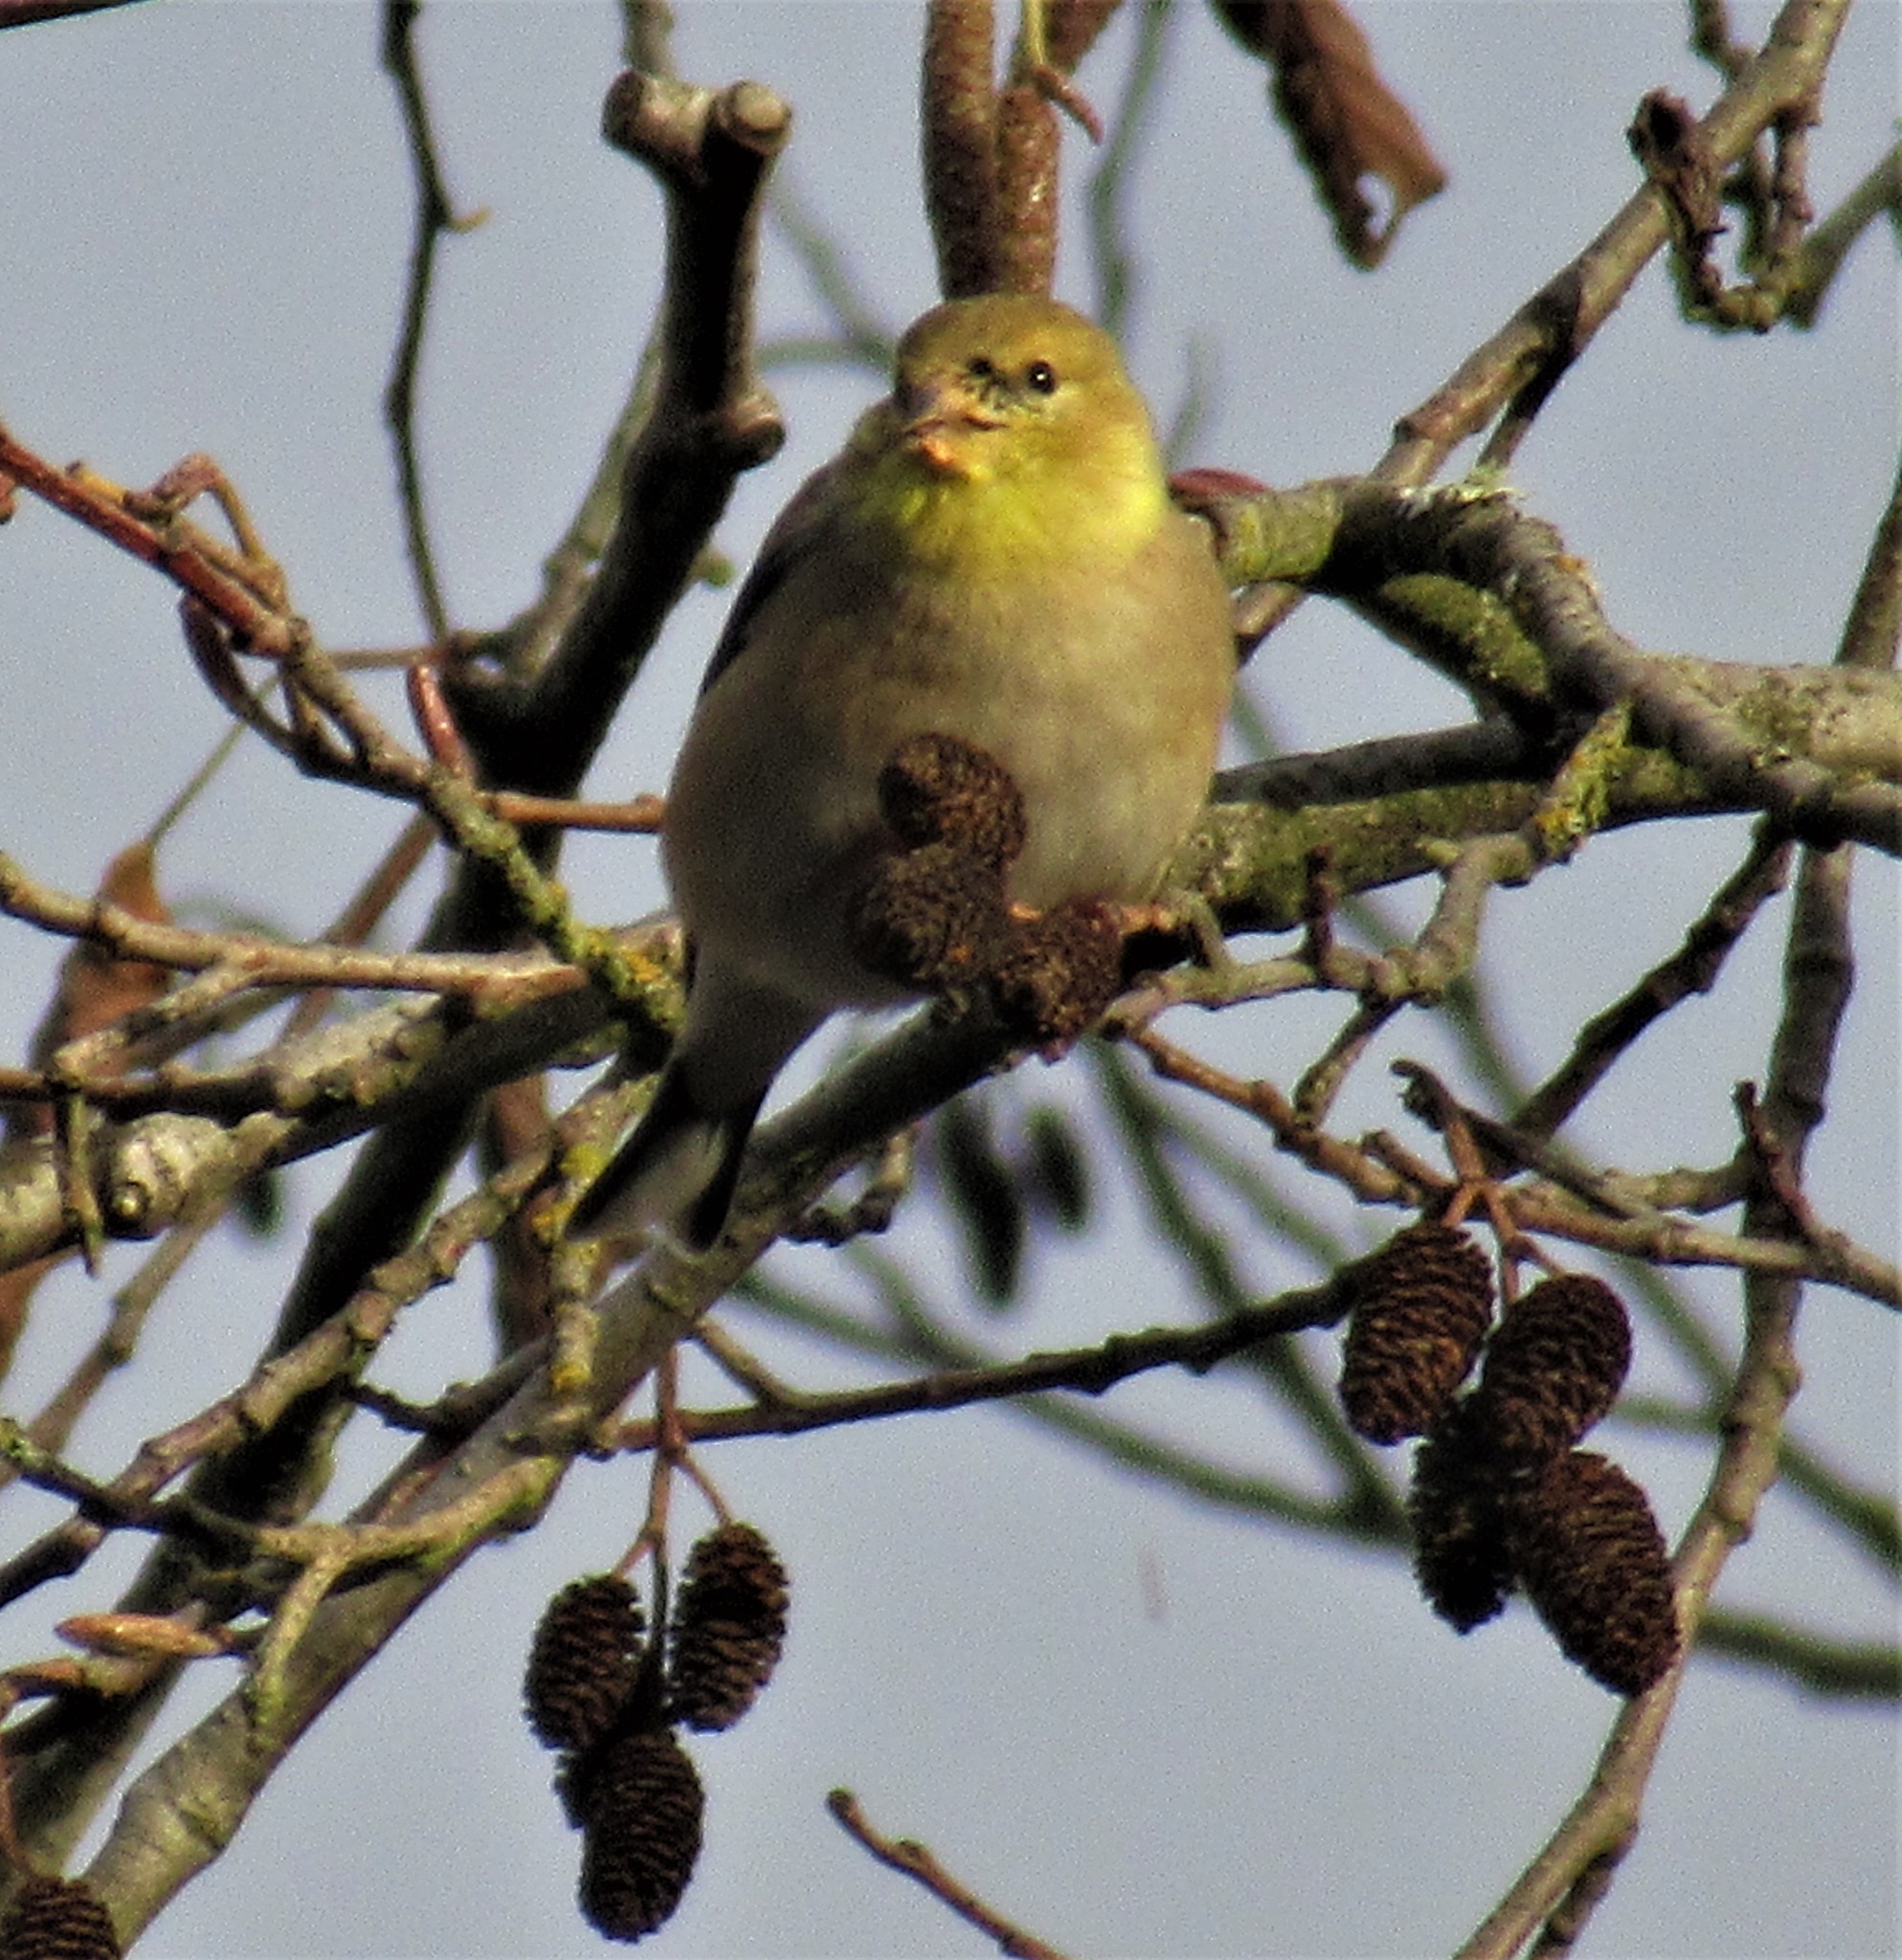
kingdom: Animalia
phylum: Chordata
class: Aves
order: Passeriformes
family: Fringillidae
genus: Spinus
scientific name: Spinus tristis
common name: American goldfinch
